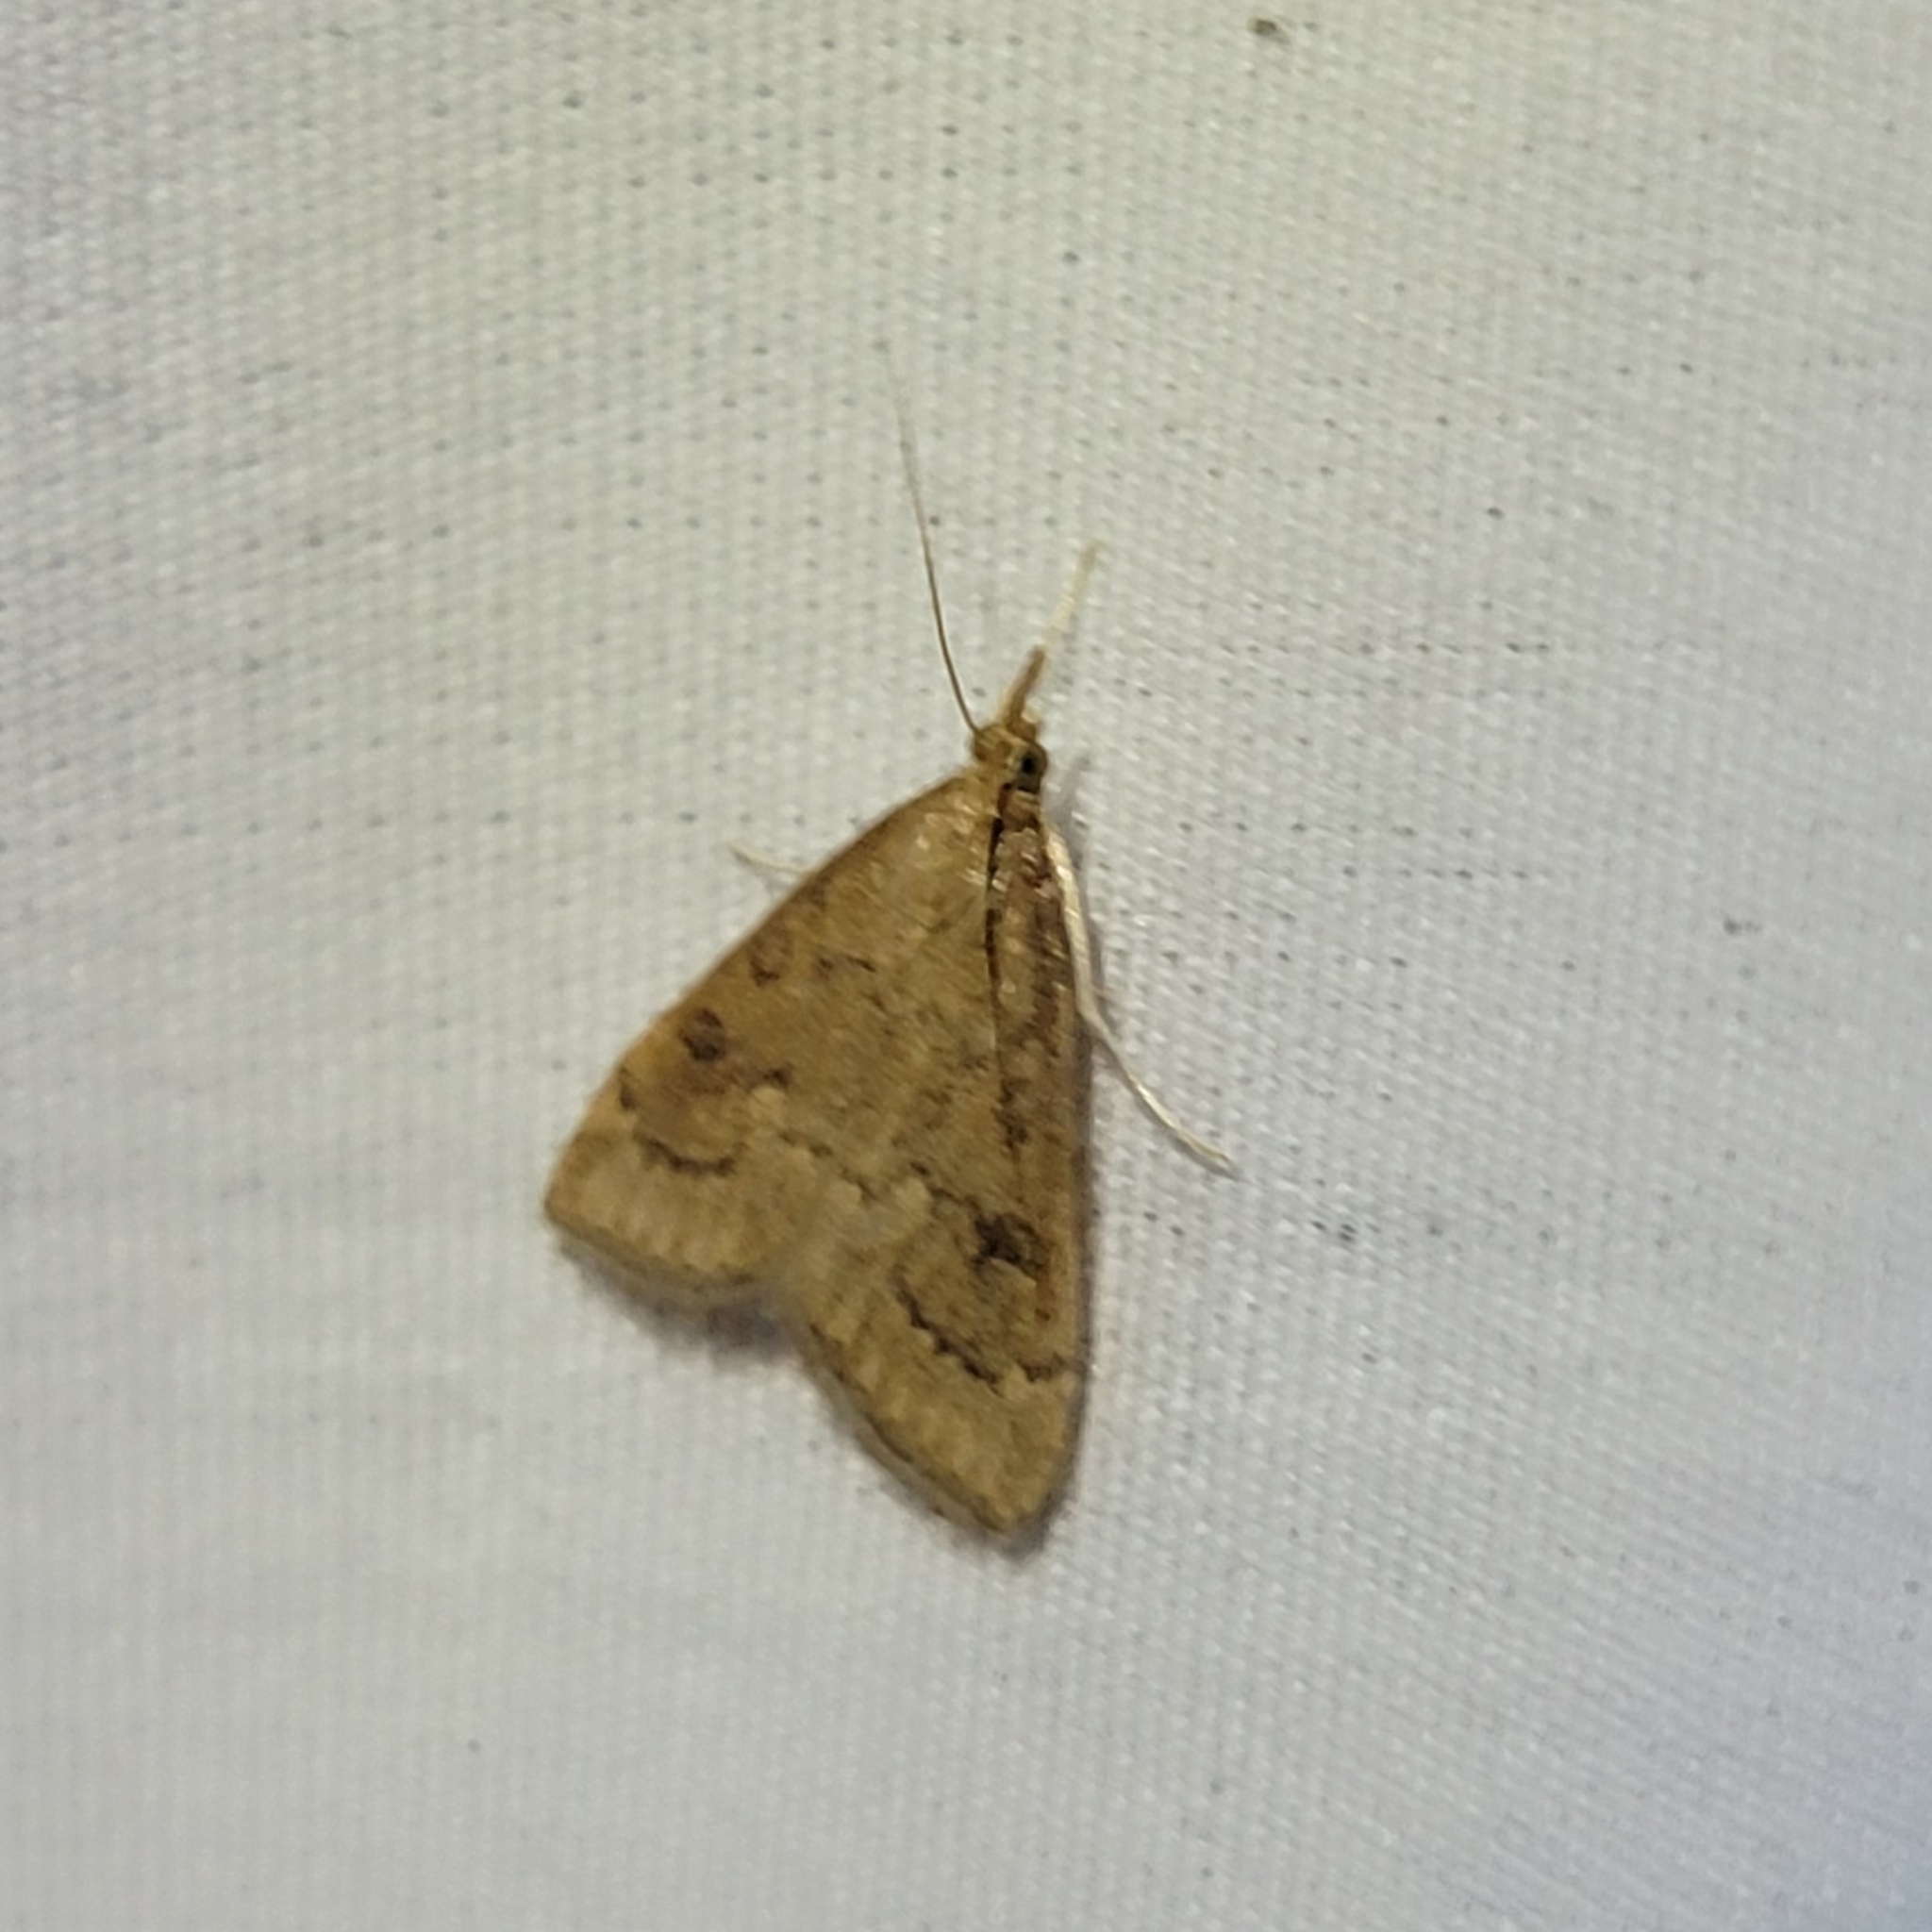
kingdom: Animalia
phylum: Arthropoda
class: Insecta
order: Lepidoptera
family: Crambidae
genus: Udea
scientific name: Udea rubigalis
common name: Celery leaftier moth
